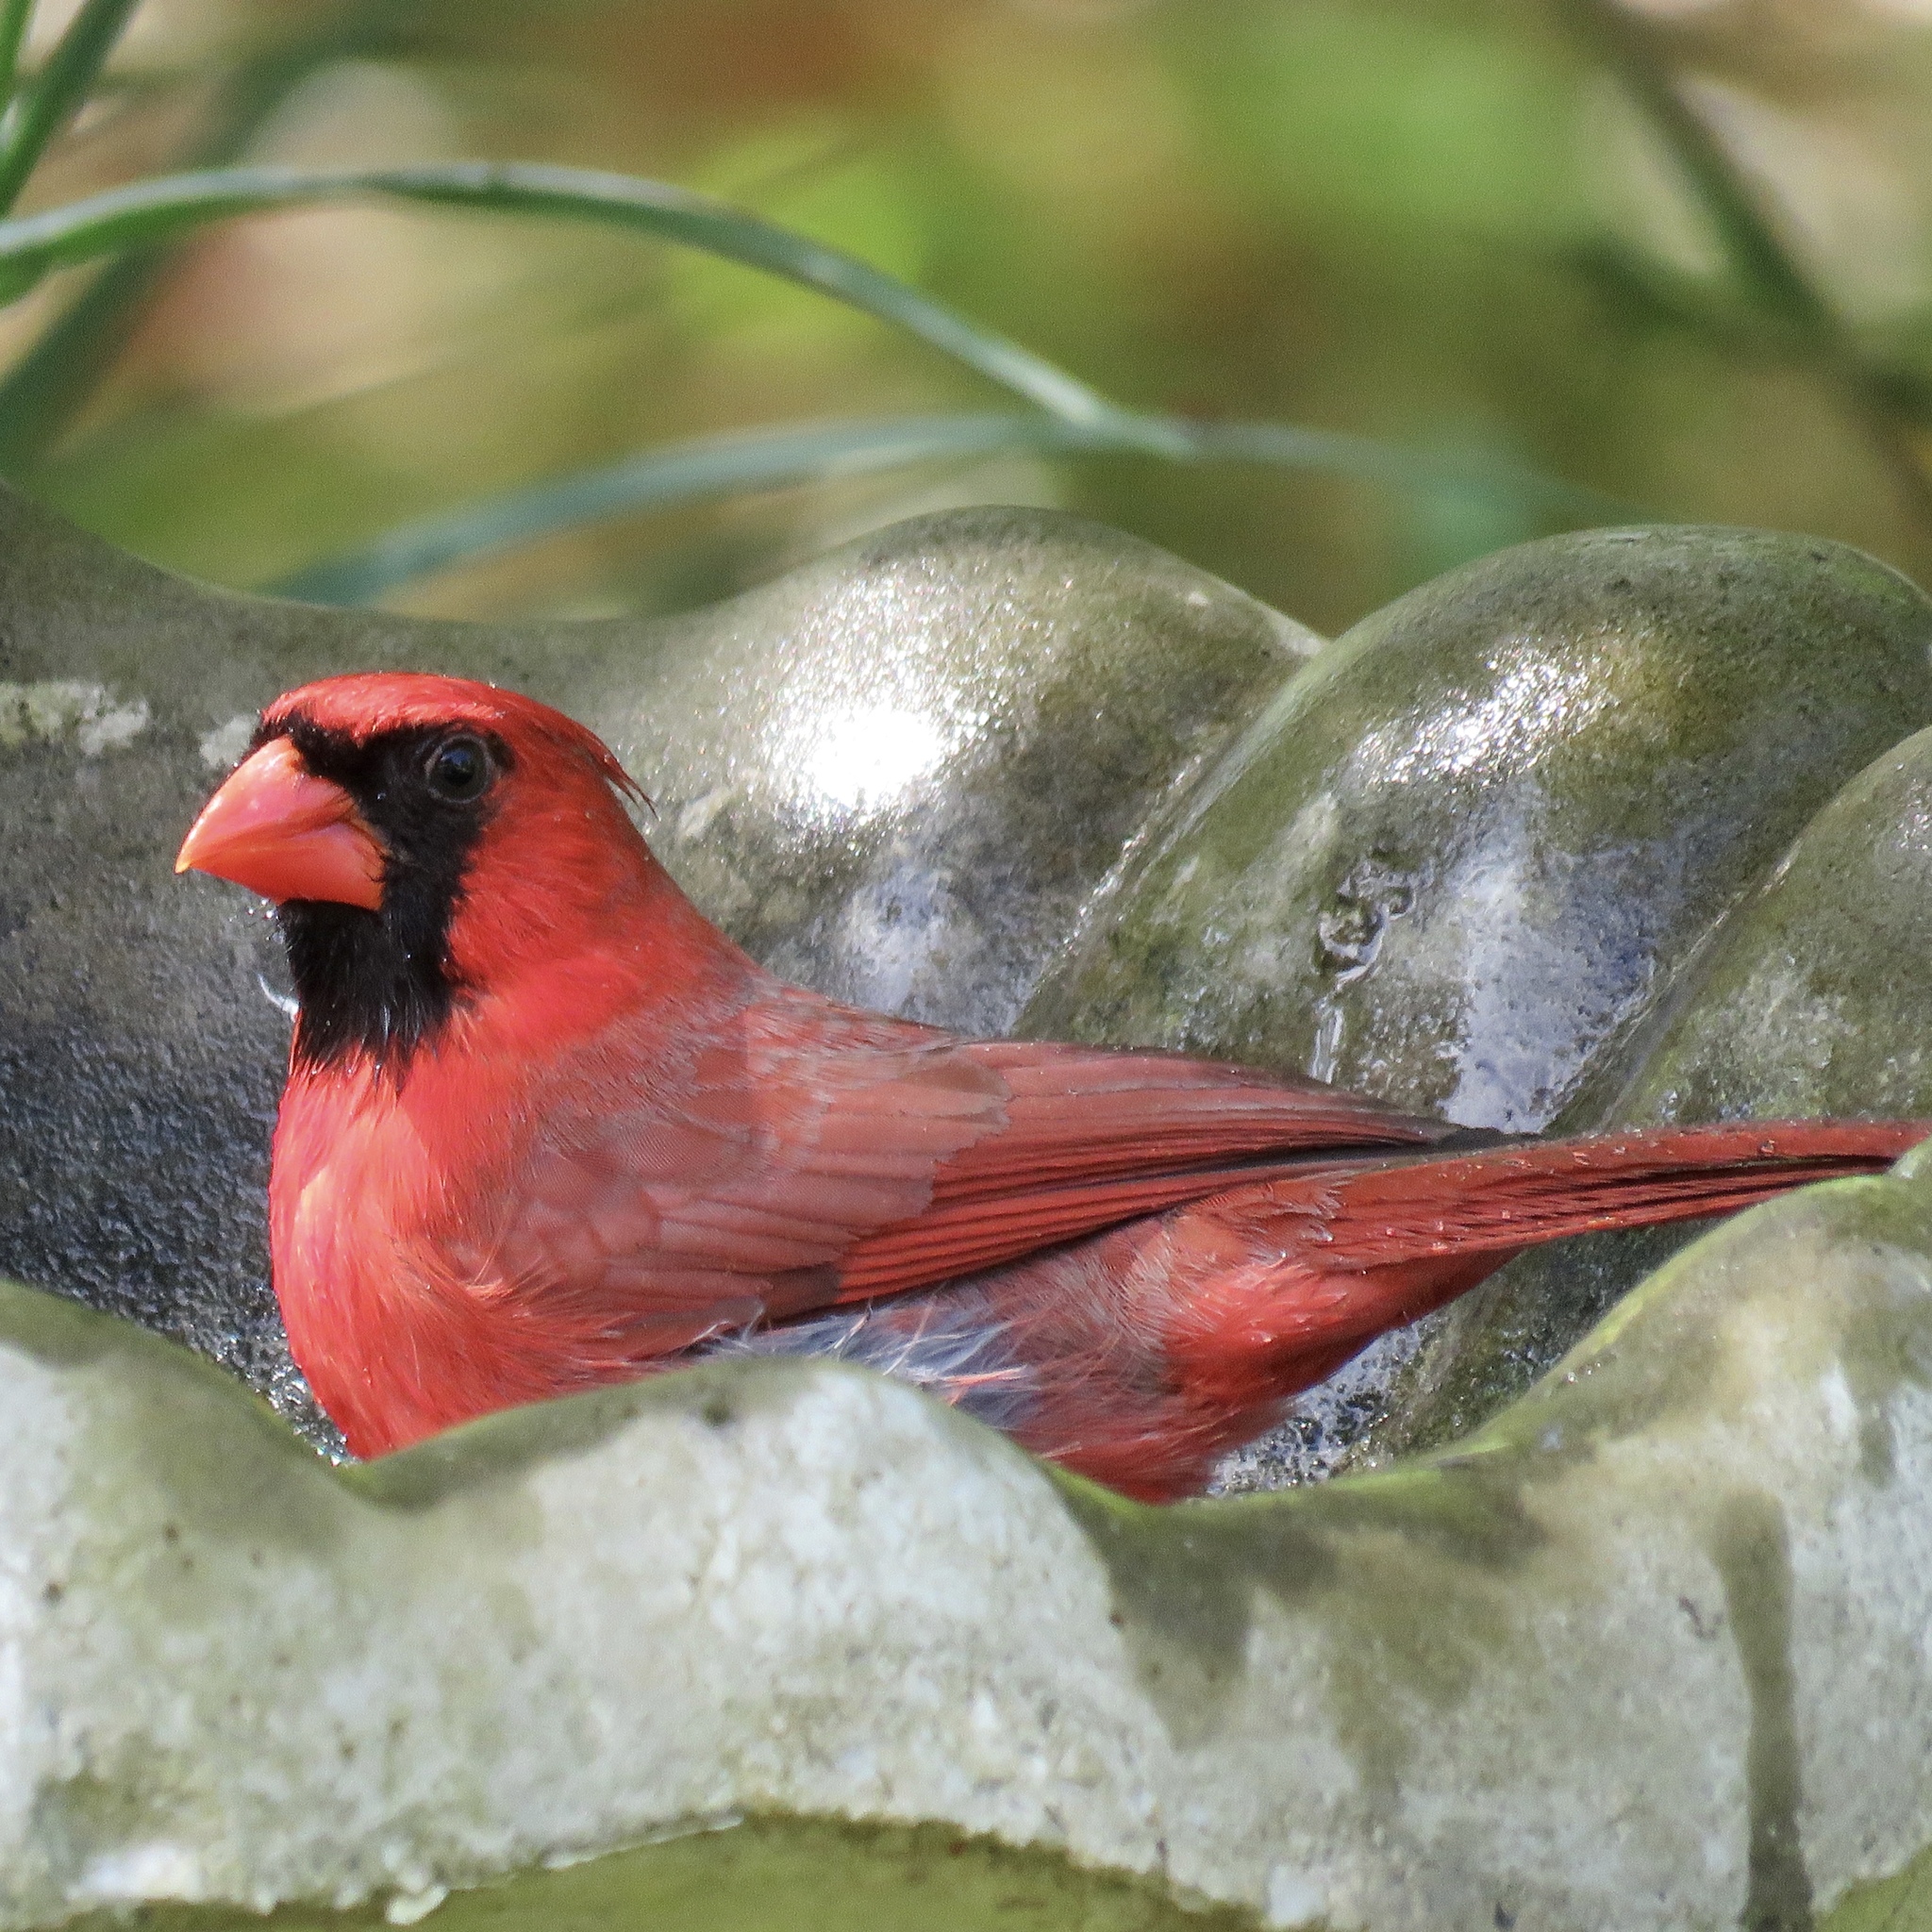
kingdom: Animalia
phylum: Chordata
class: Aves
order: Passeriformes
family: Cardinalidae
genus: Cardinalis
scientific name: Cardinalis cardinalis
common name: Northern cardinal
